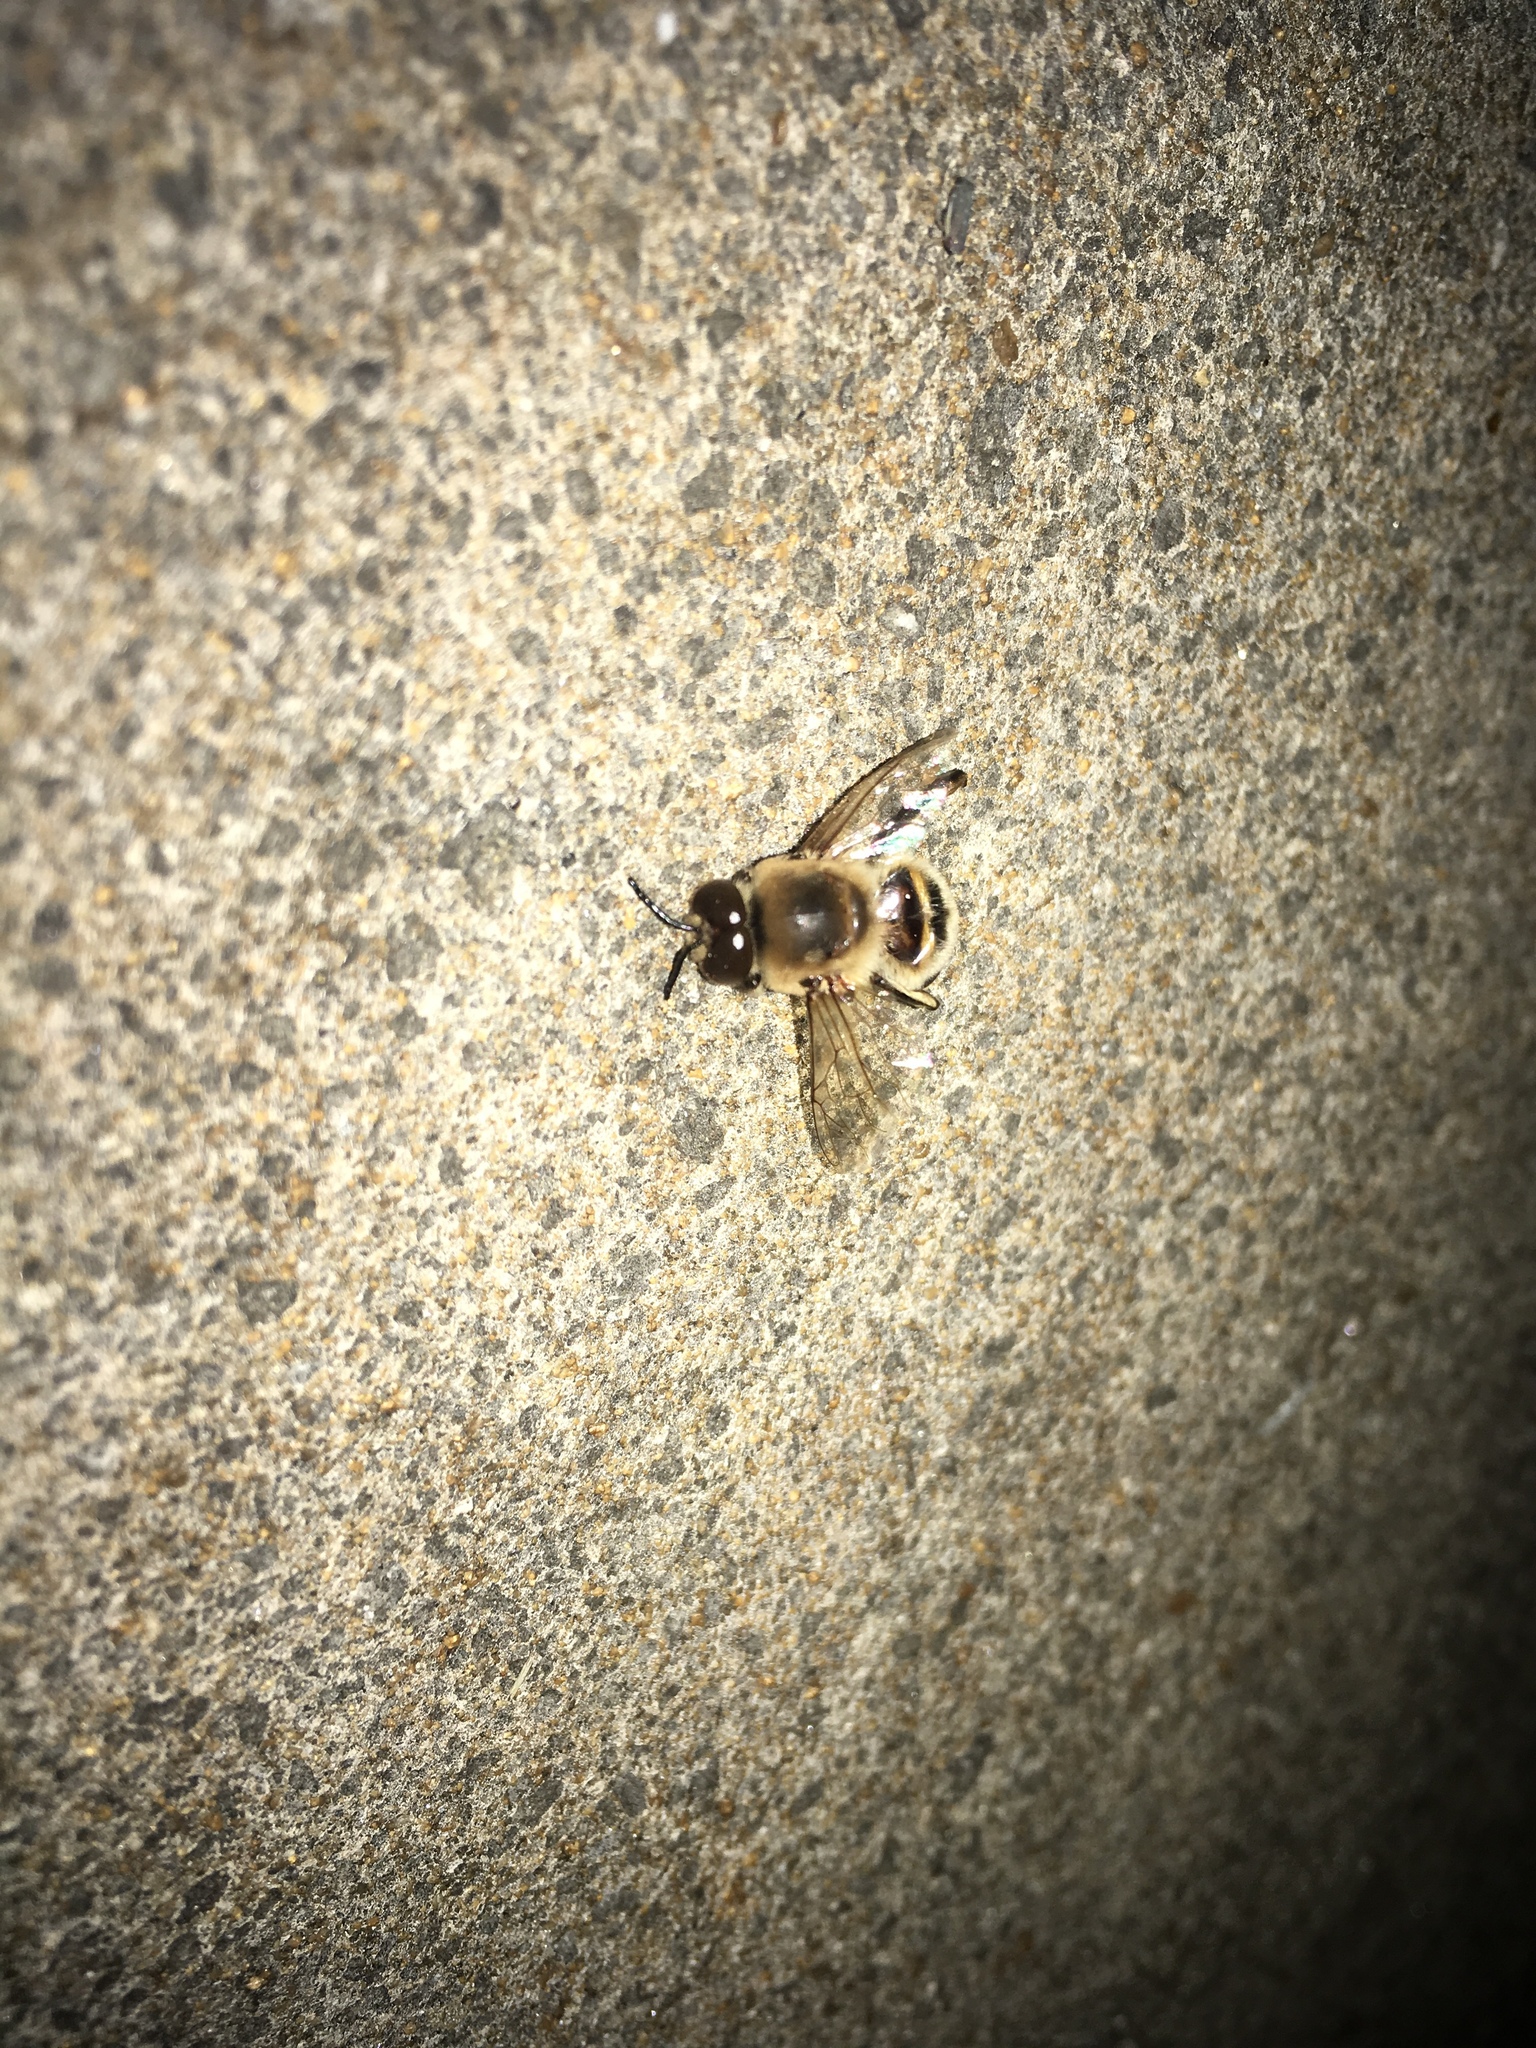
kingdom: Animalia
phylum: Arthropoda
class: Insecta
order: Hymenoptera
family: Apidae
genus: Apis
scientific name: Apis mellifera
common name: Honey bee
